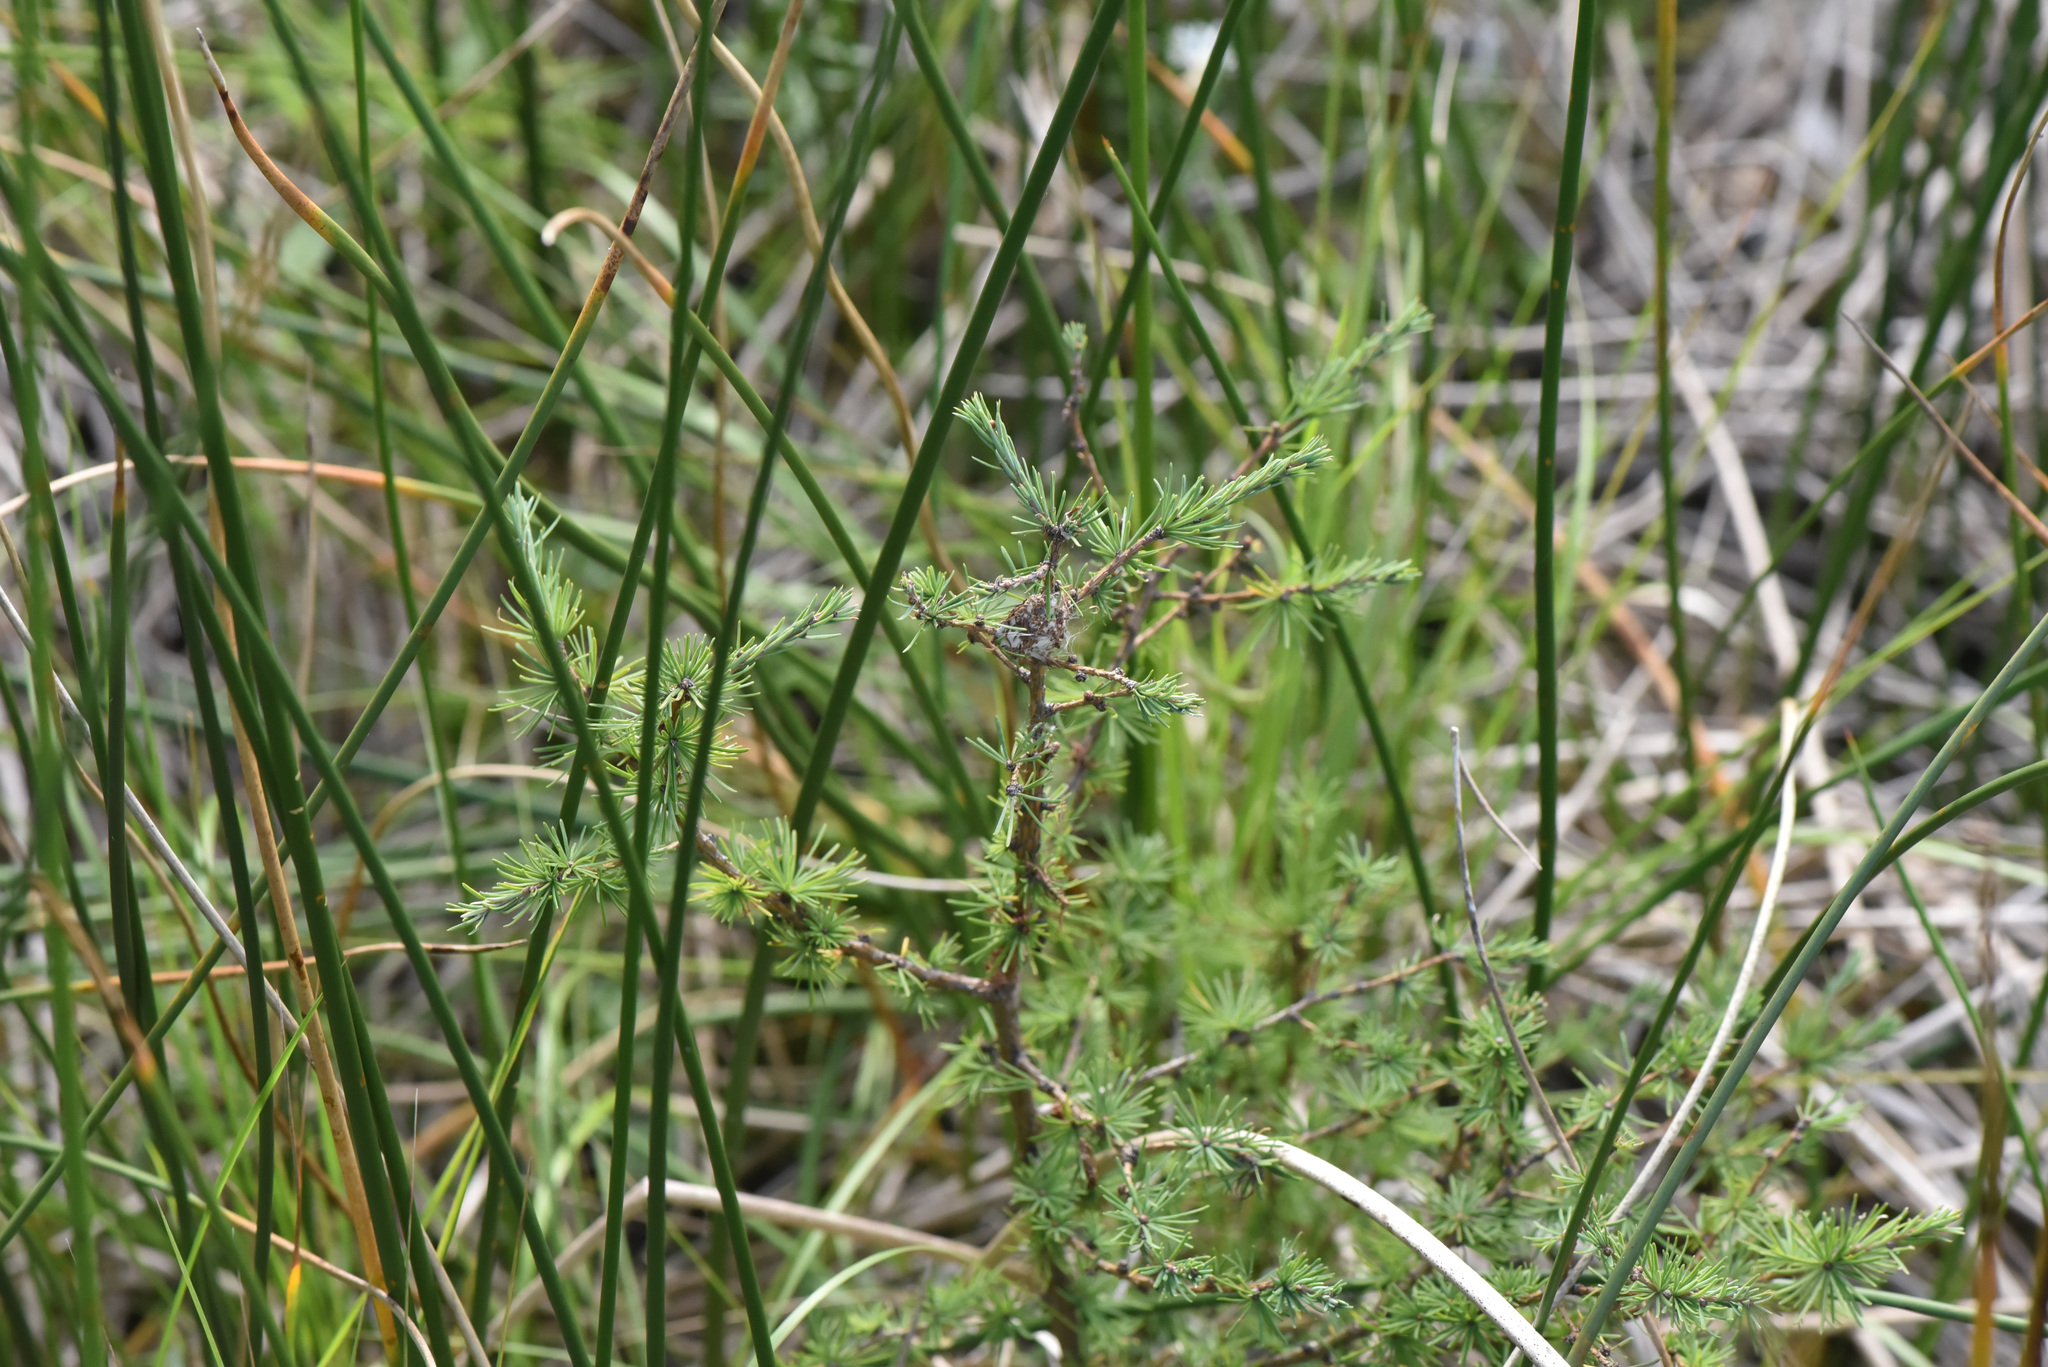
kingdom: Plantae
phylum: Tracheophyta
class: Pinopsida
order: Pinales
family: Pinaceae
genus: Larix
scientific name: Larix laricina
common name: American larch
